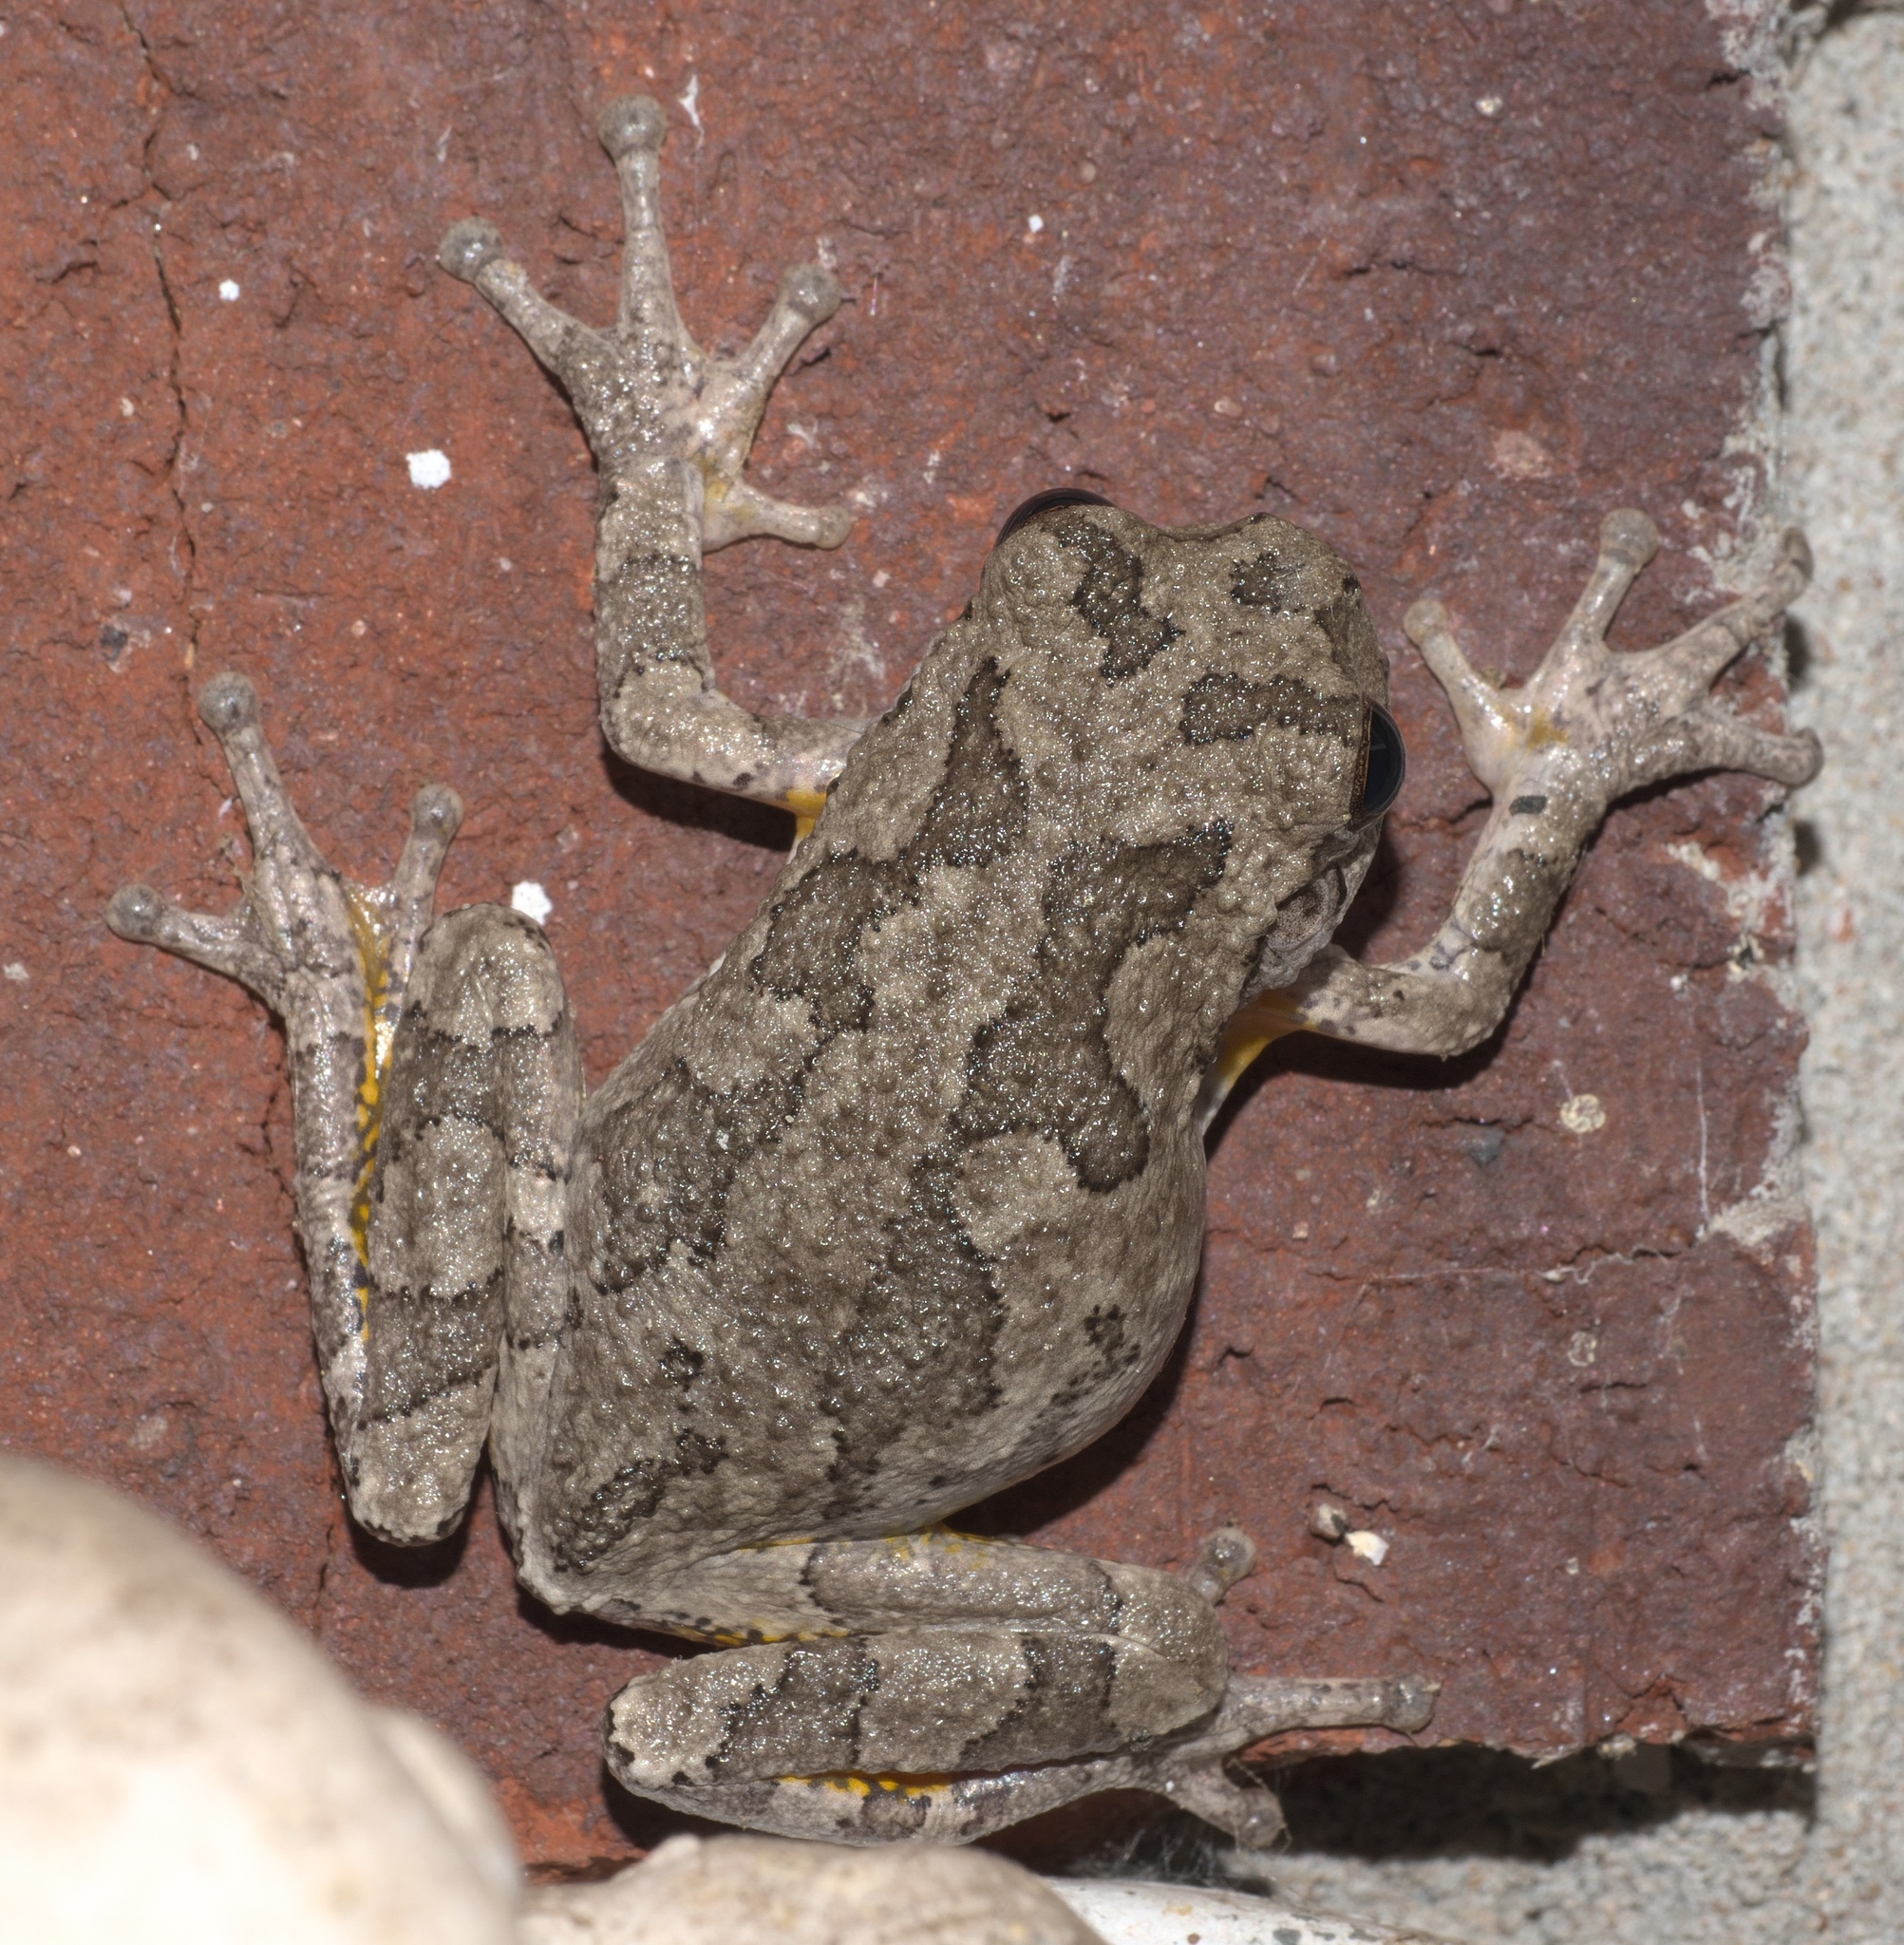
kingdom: Animalia
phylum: Chordata
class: Amphibia
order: Anura
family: Hylidae
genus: Hyla
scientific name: Hyla
